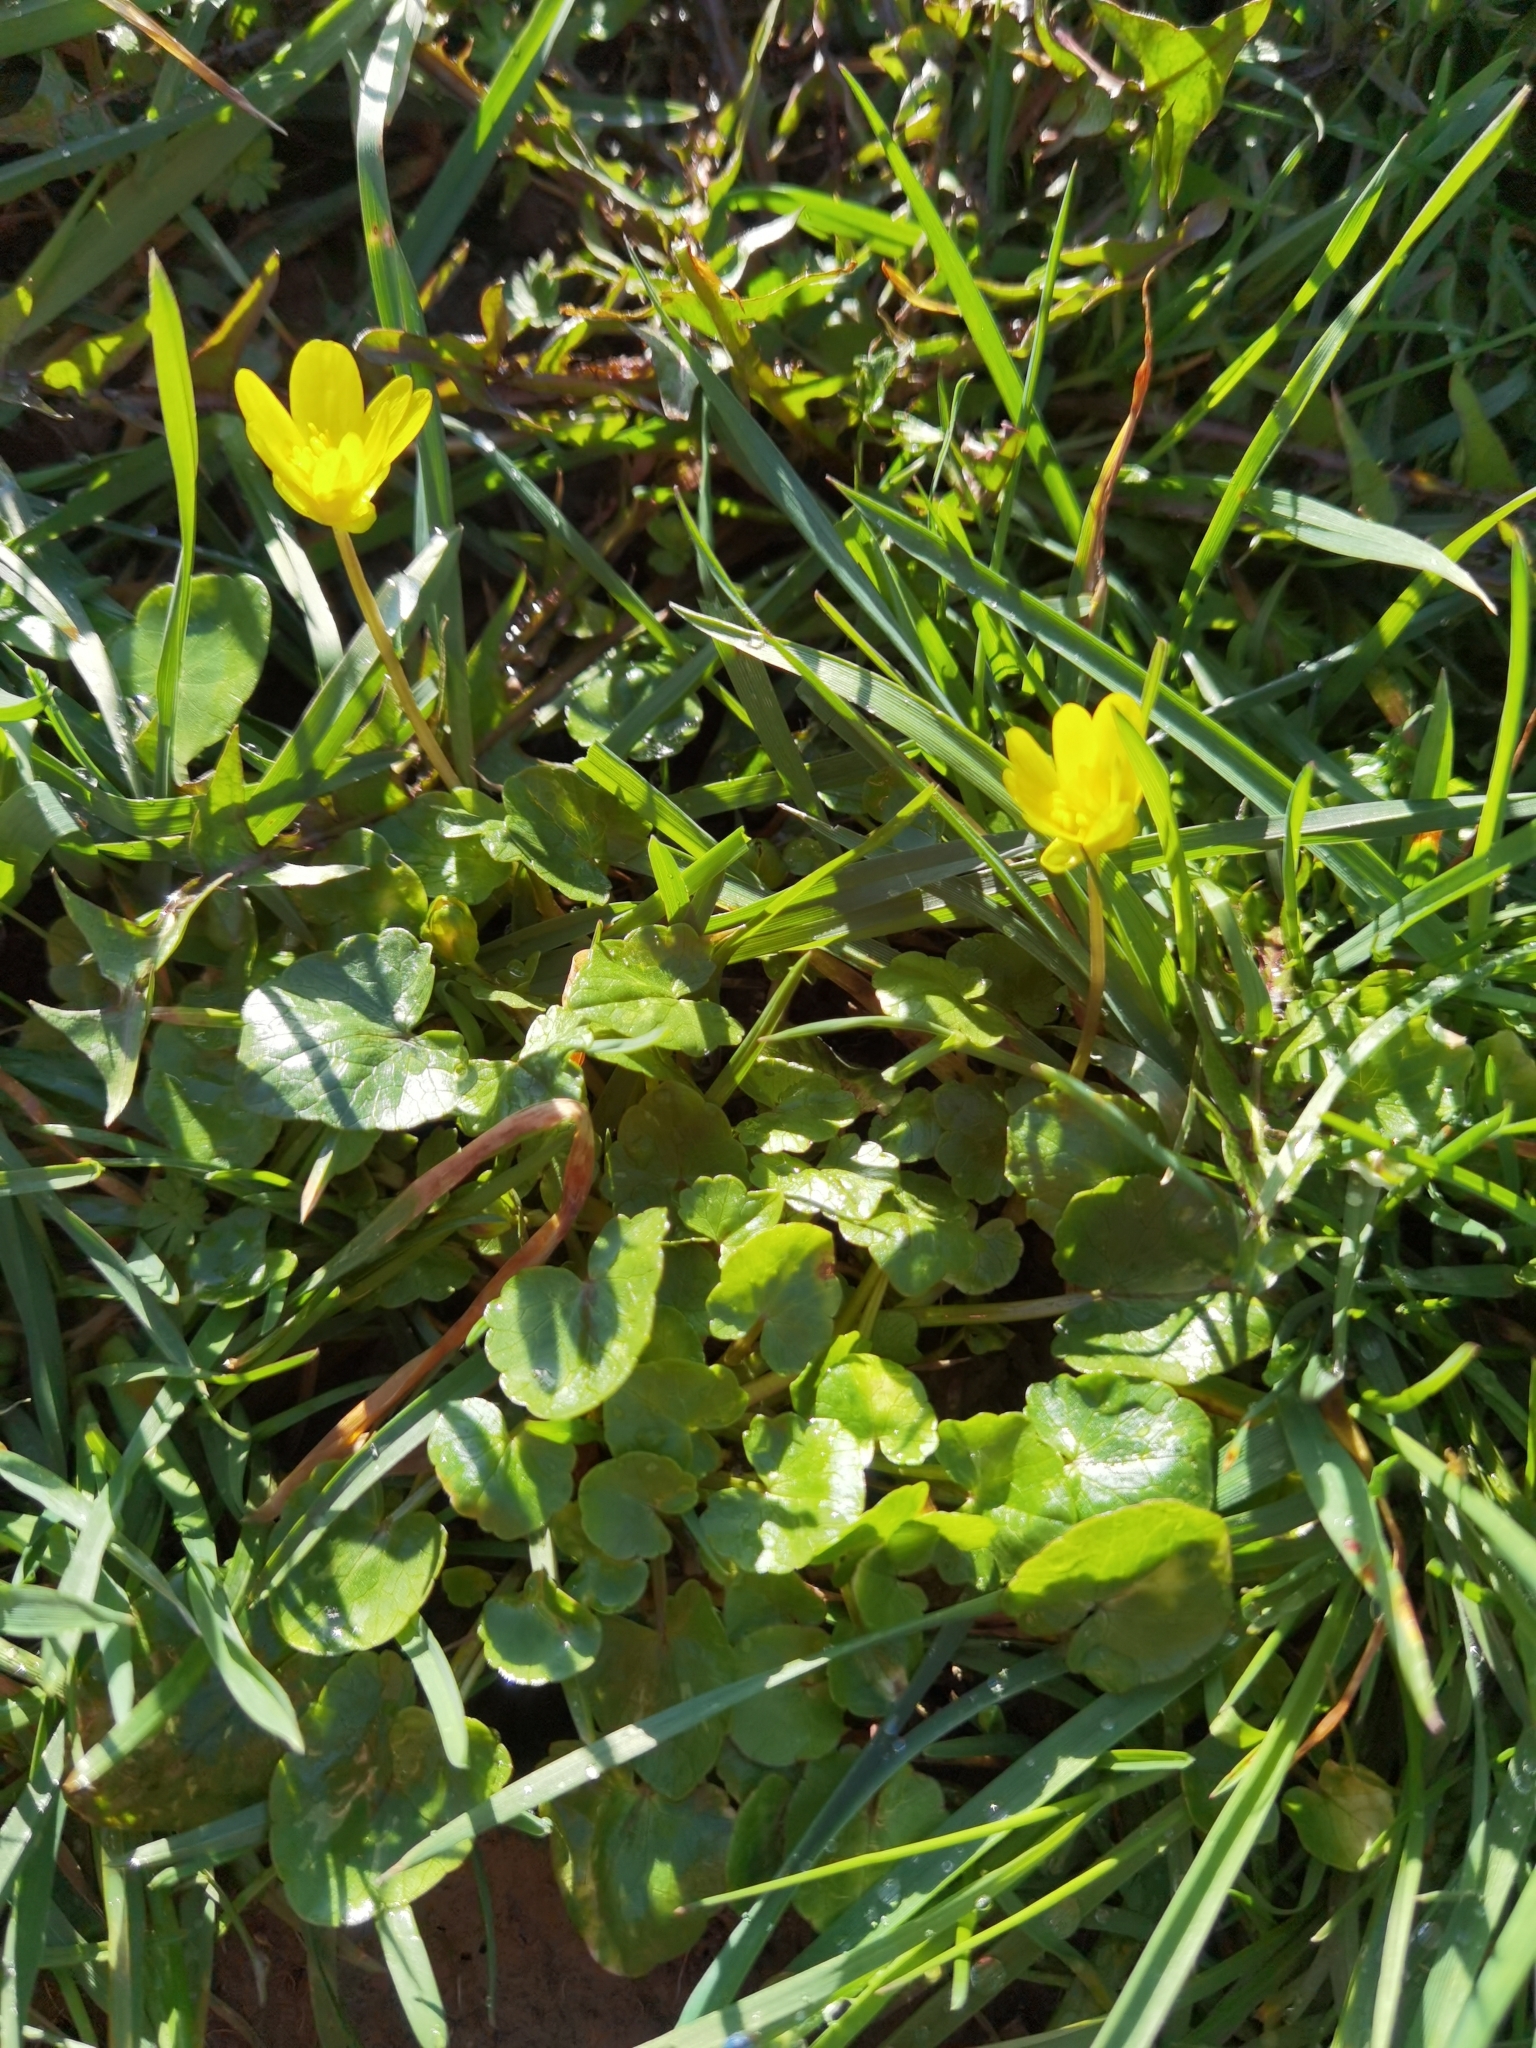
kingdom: Plantae
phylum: Tracheophyta
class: Magnoliopsida
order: Ranunculales
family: Ranunculaceae
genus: Ficaria
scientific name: Ficaria verna
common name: Lesser celandine
